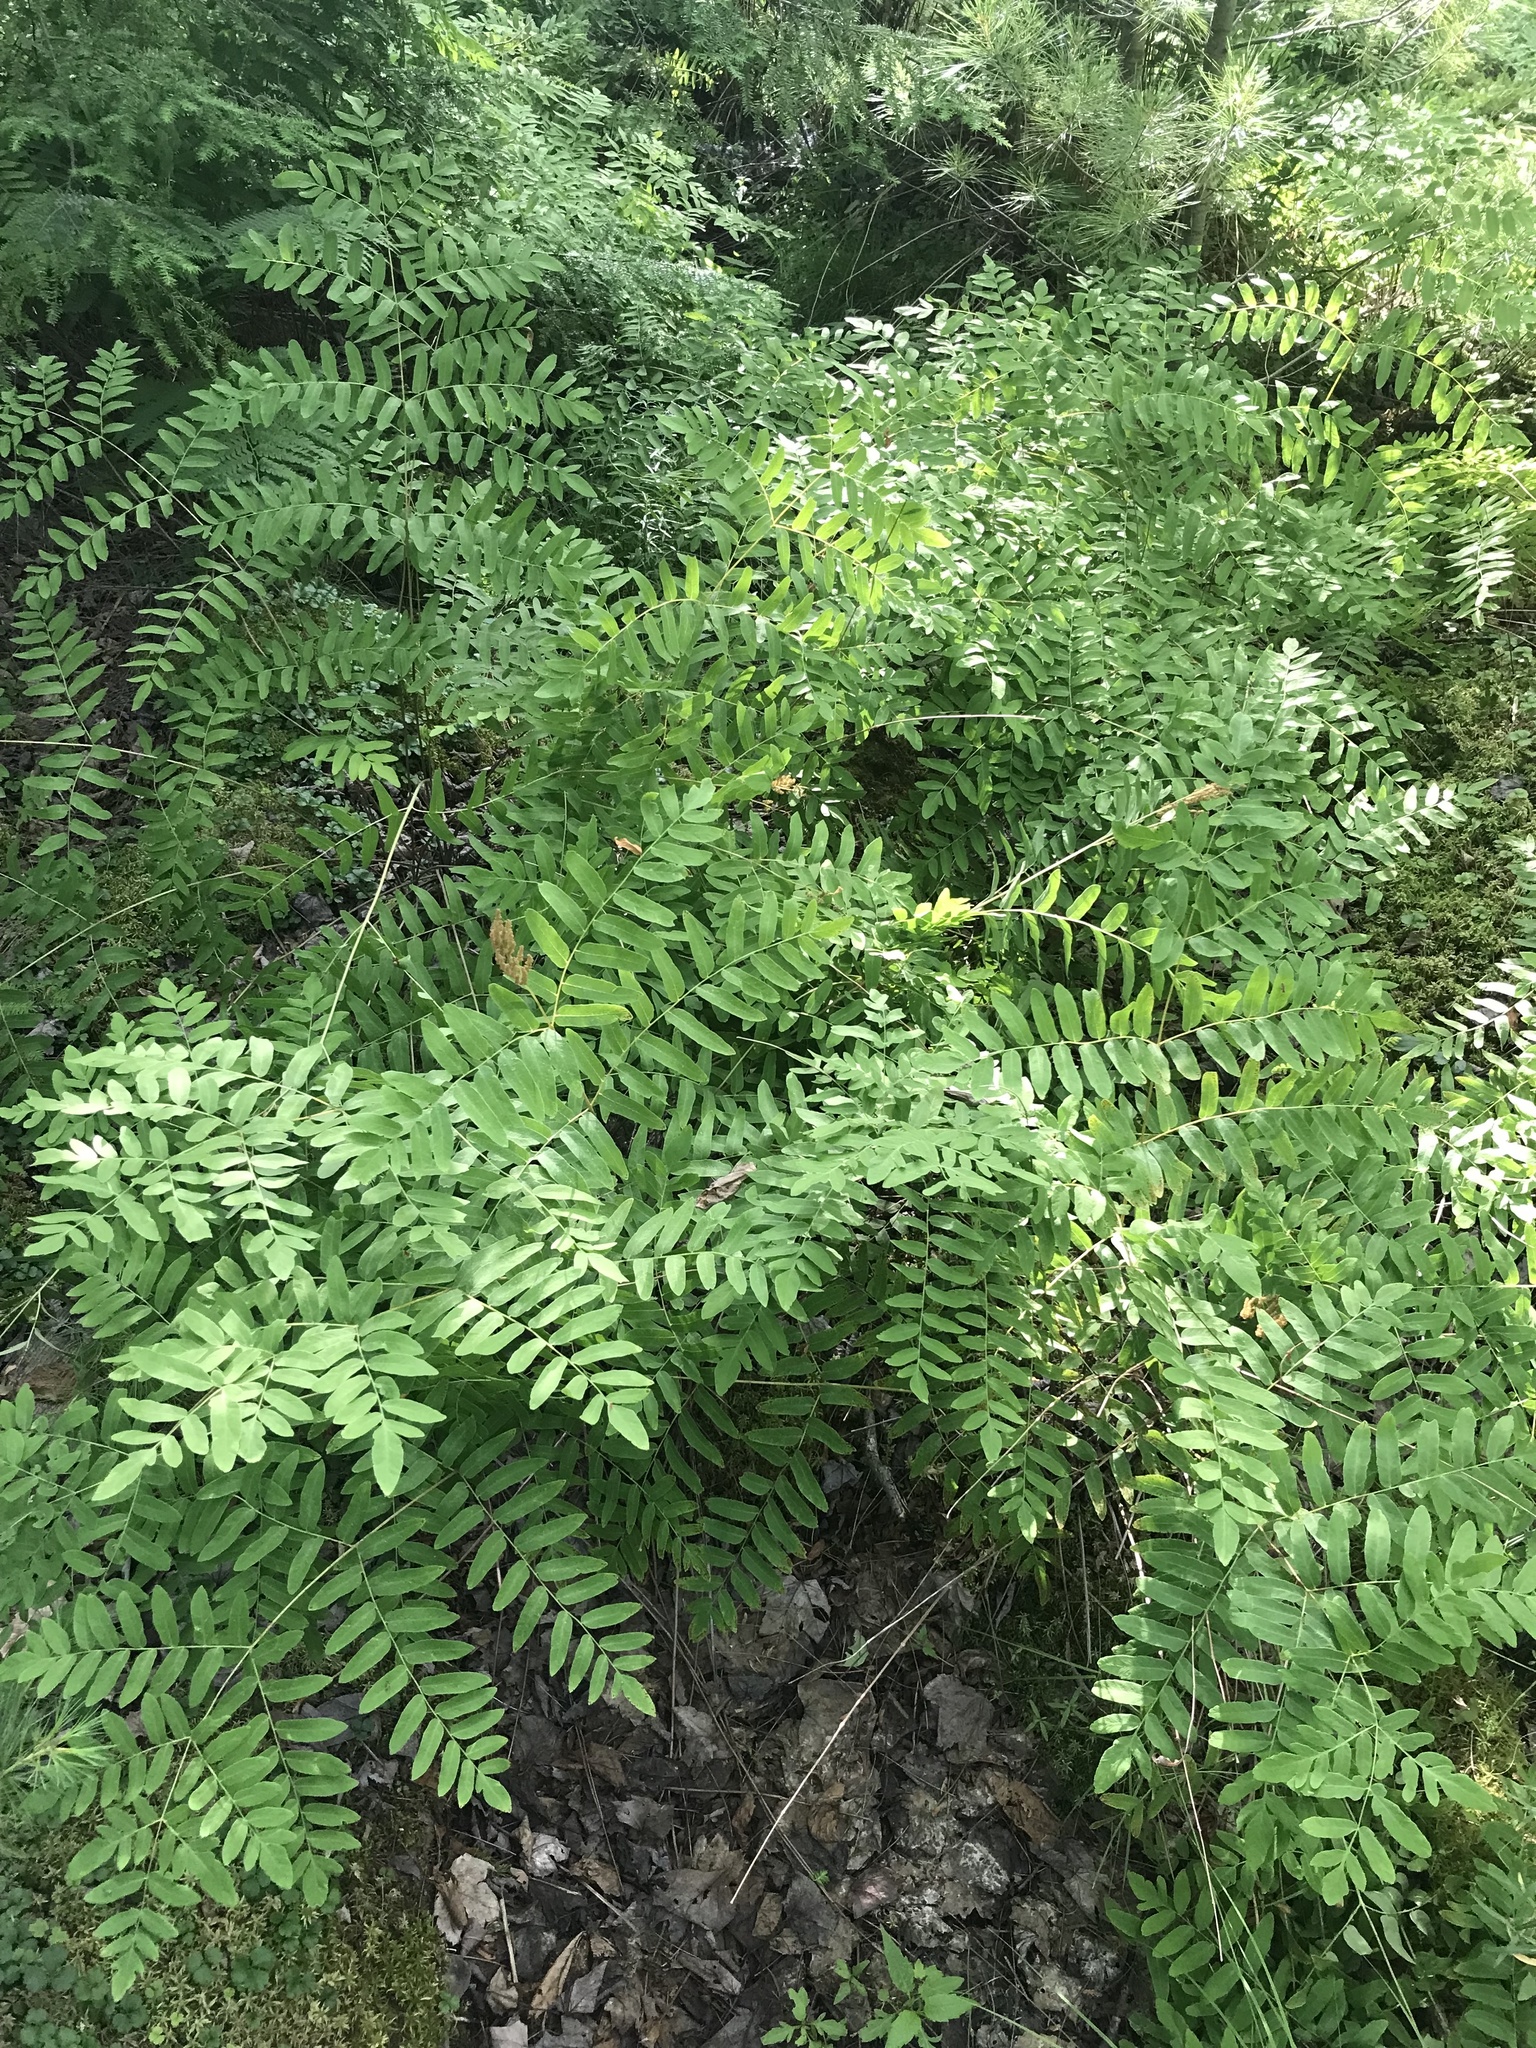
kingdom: Plantae
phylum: Tracheophyta
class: Polypodiopsida
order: Osmundales
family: Osmundaceae
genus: Osmunda
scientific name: Osmunda spectabilis
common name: American royal fern
